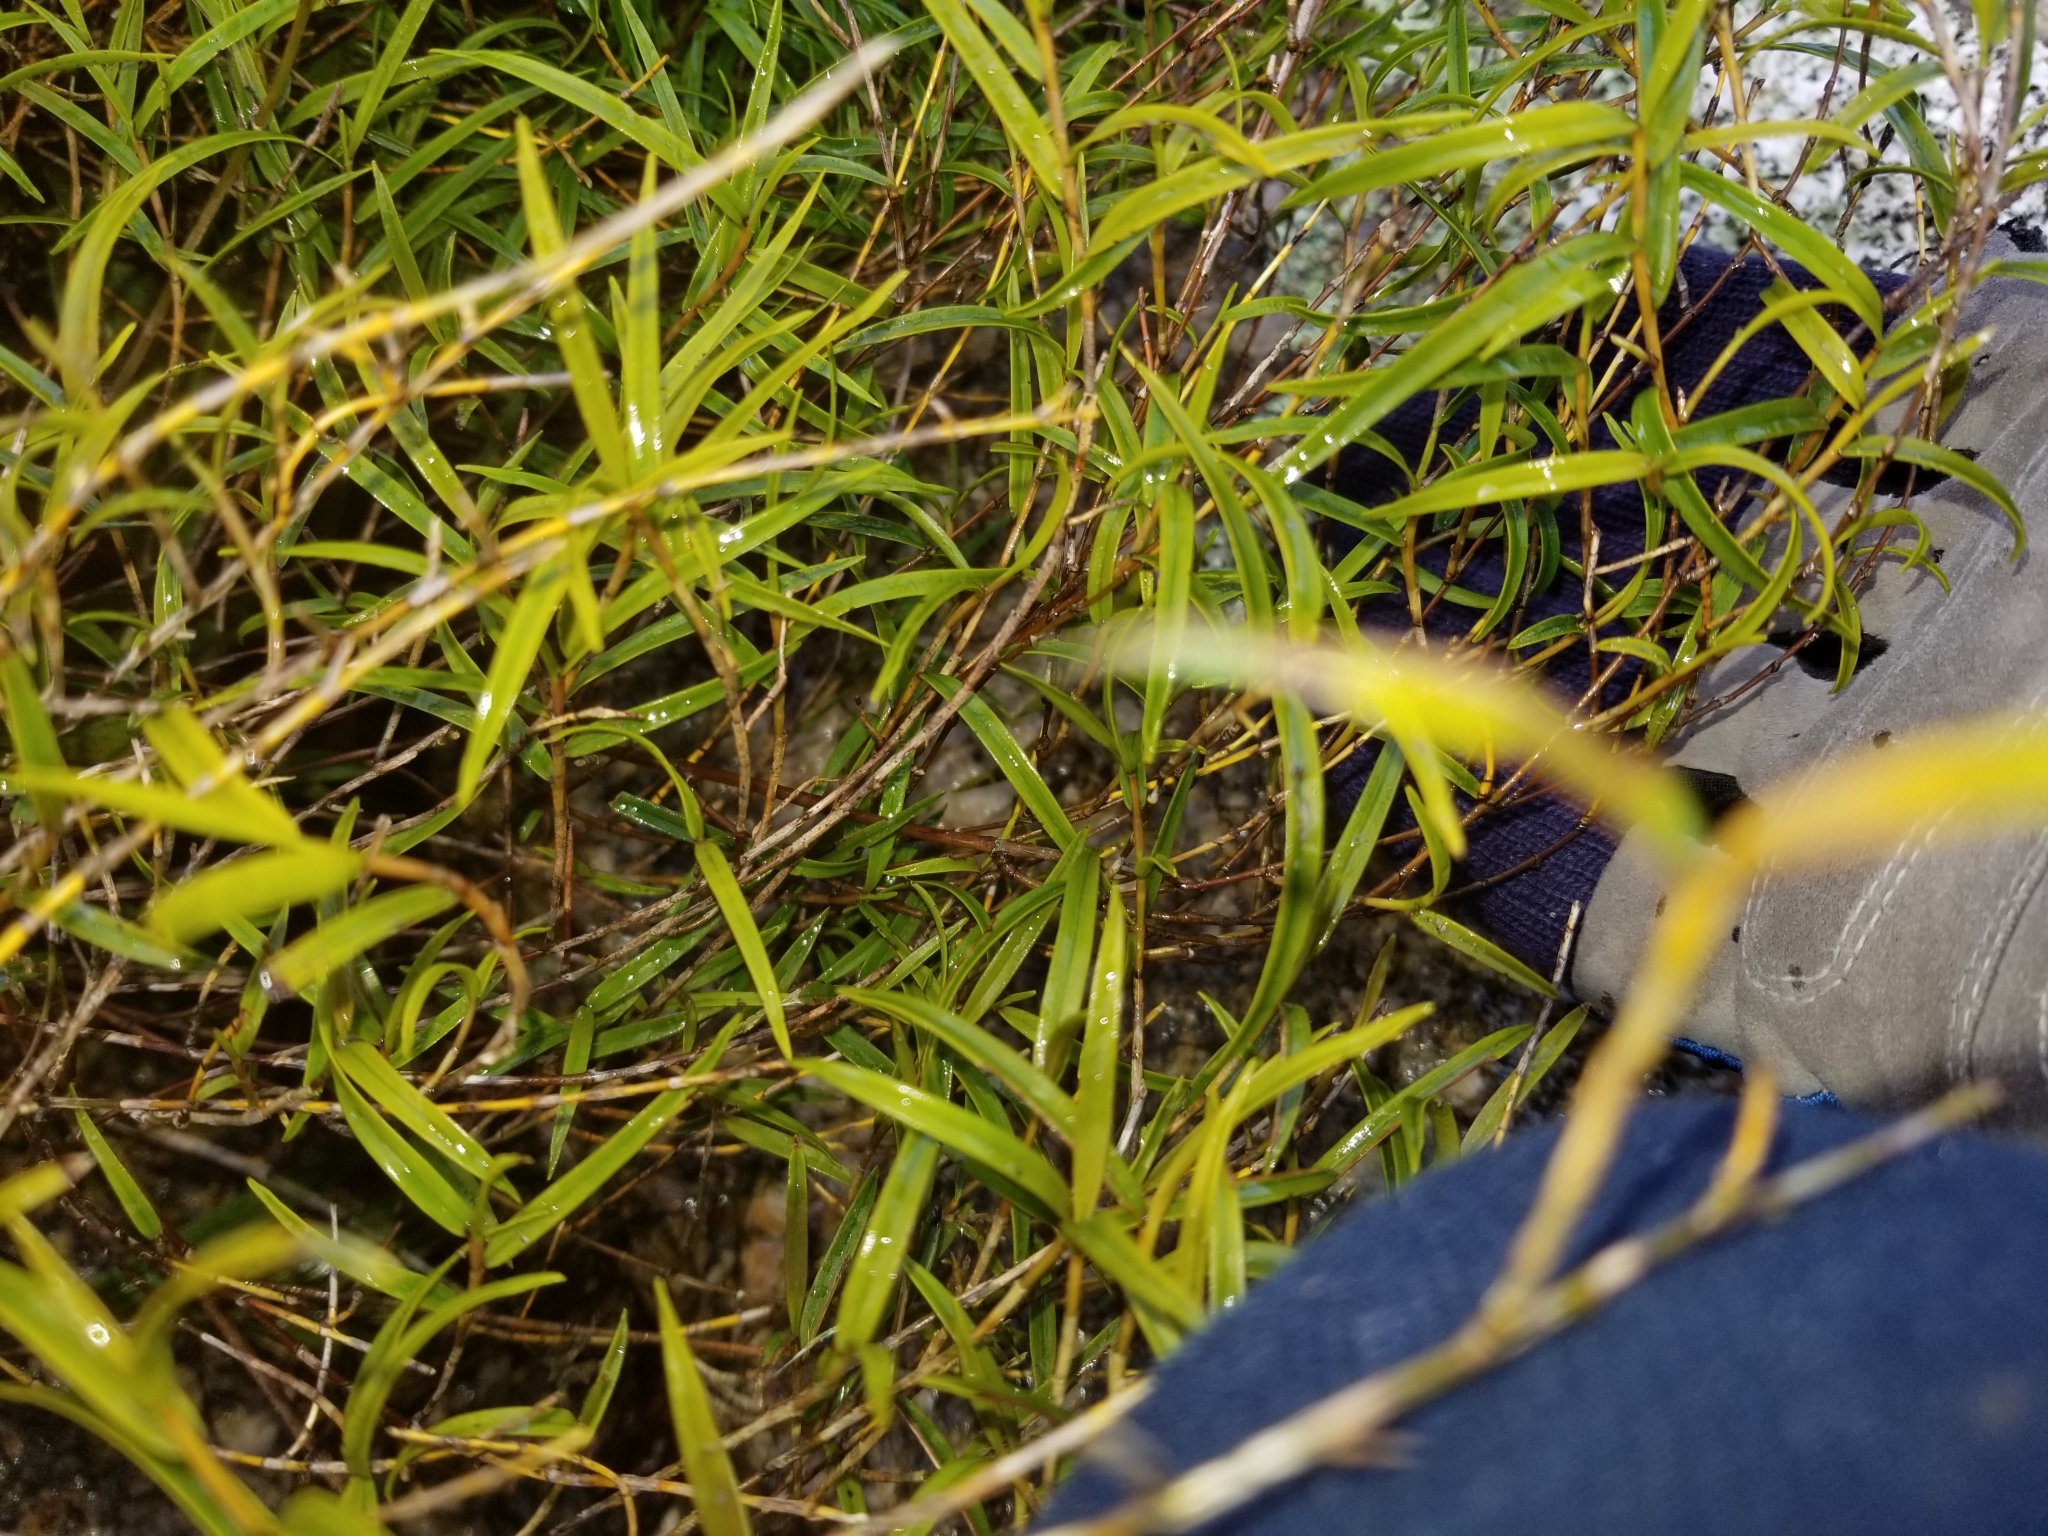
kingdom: Plantae
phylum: Tracheophyta
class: Liliopsida
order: Asparagales
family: Orchidaceae
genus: Dendrobium
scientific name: Dendrobium cunninghamii
